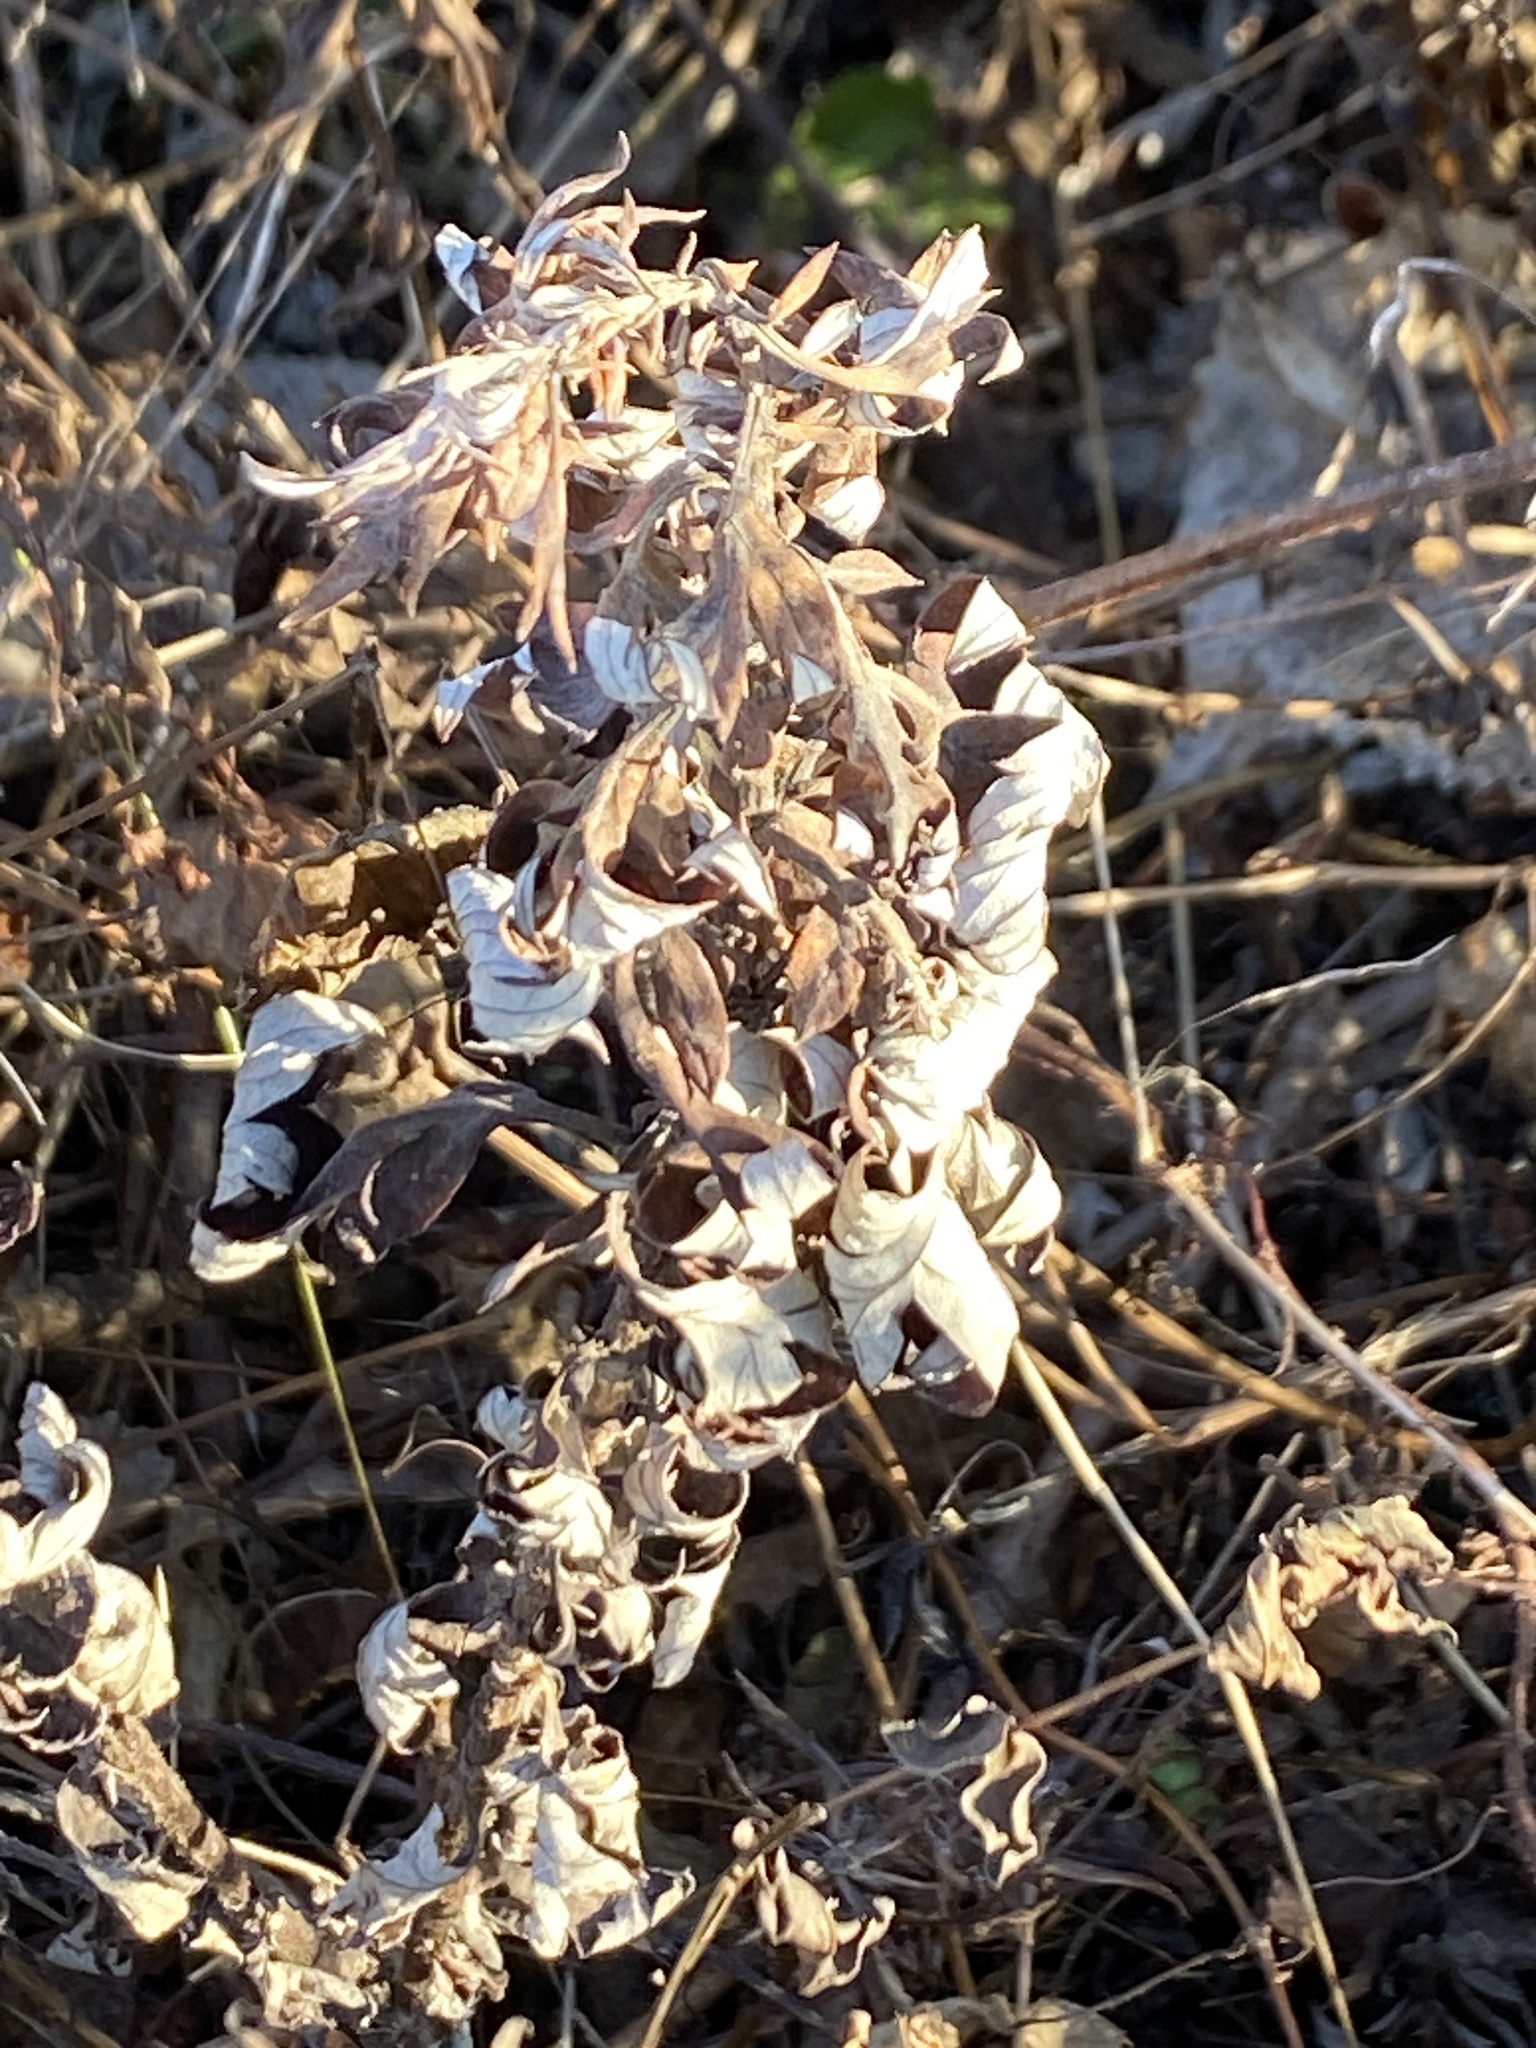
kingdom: Plantae
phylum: Tracheophyta
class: Magnoliopsida
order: Asterales
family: Asteraceae
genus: Artemisia
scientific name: Artemisia vulgaris
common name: Mugwort
